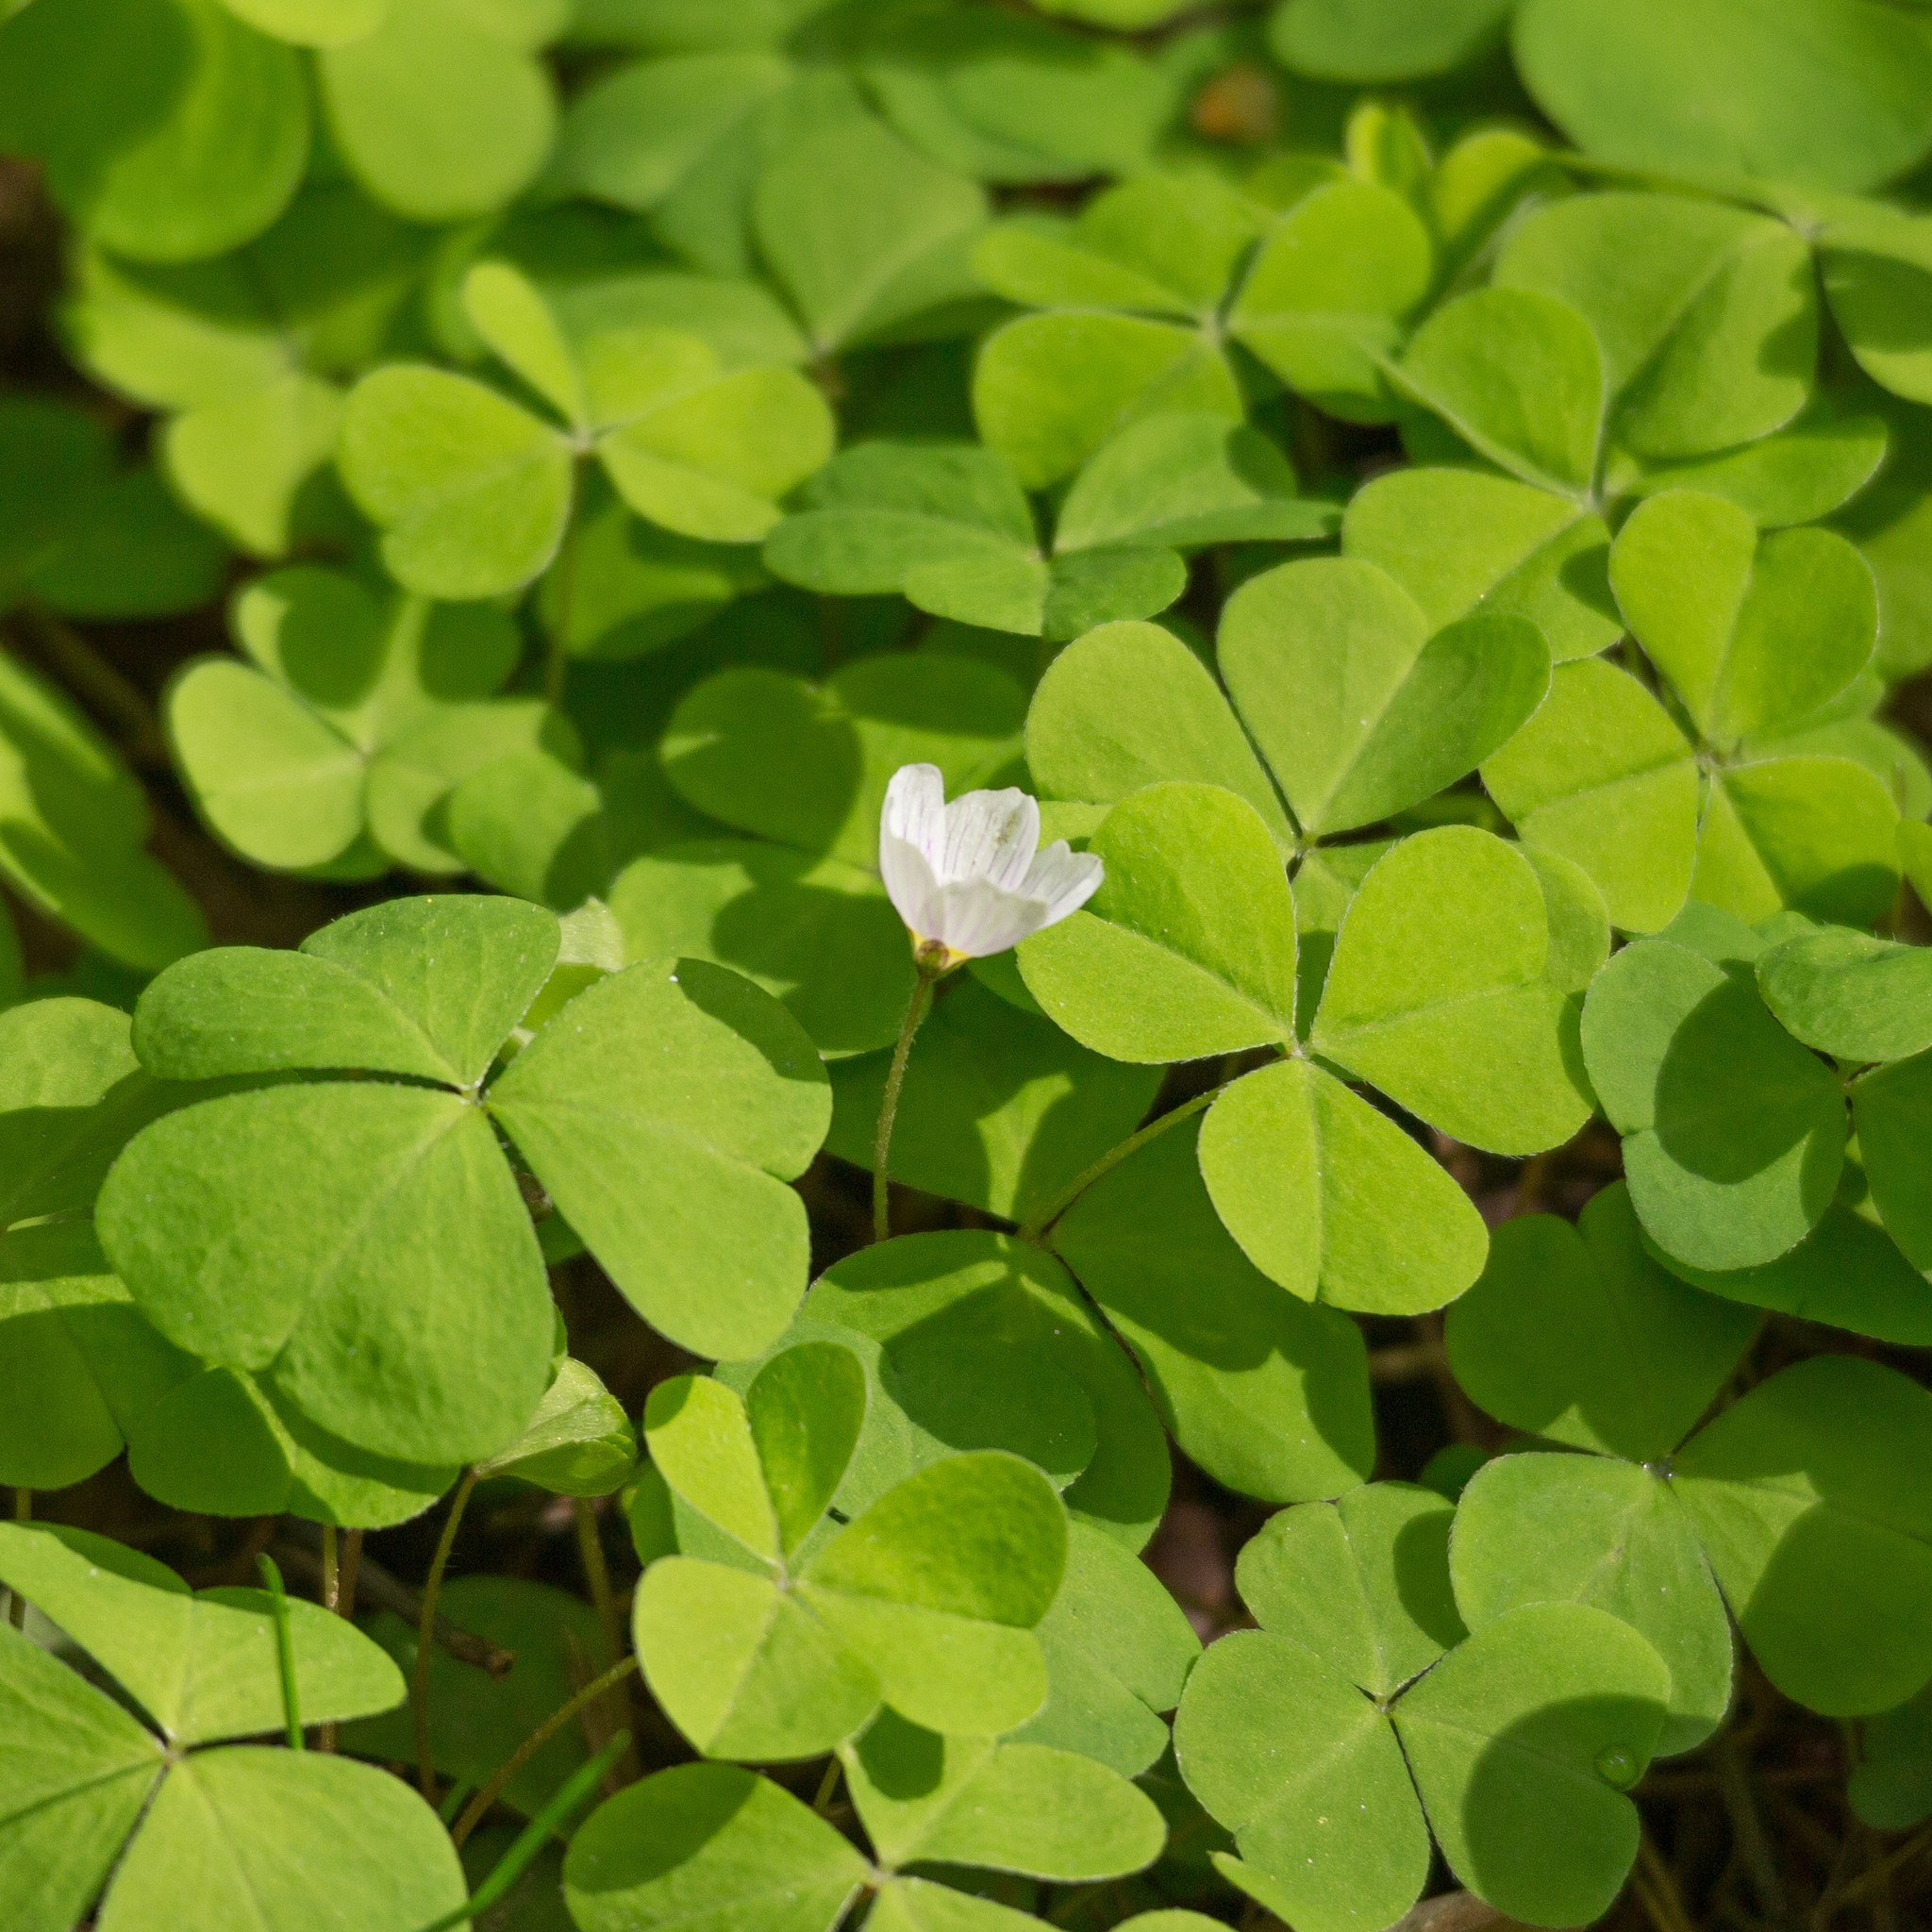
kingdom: Plantae
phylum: Tracheophyta
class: Magnoliopsida
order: Oxalidales
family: Oxalidaceae
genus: Oxalis
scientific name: Oxalis acetosella
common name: Wood-sorrel
